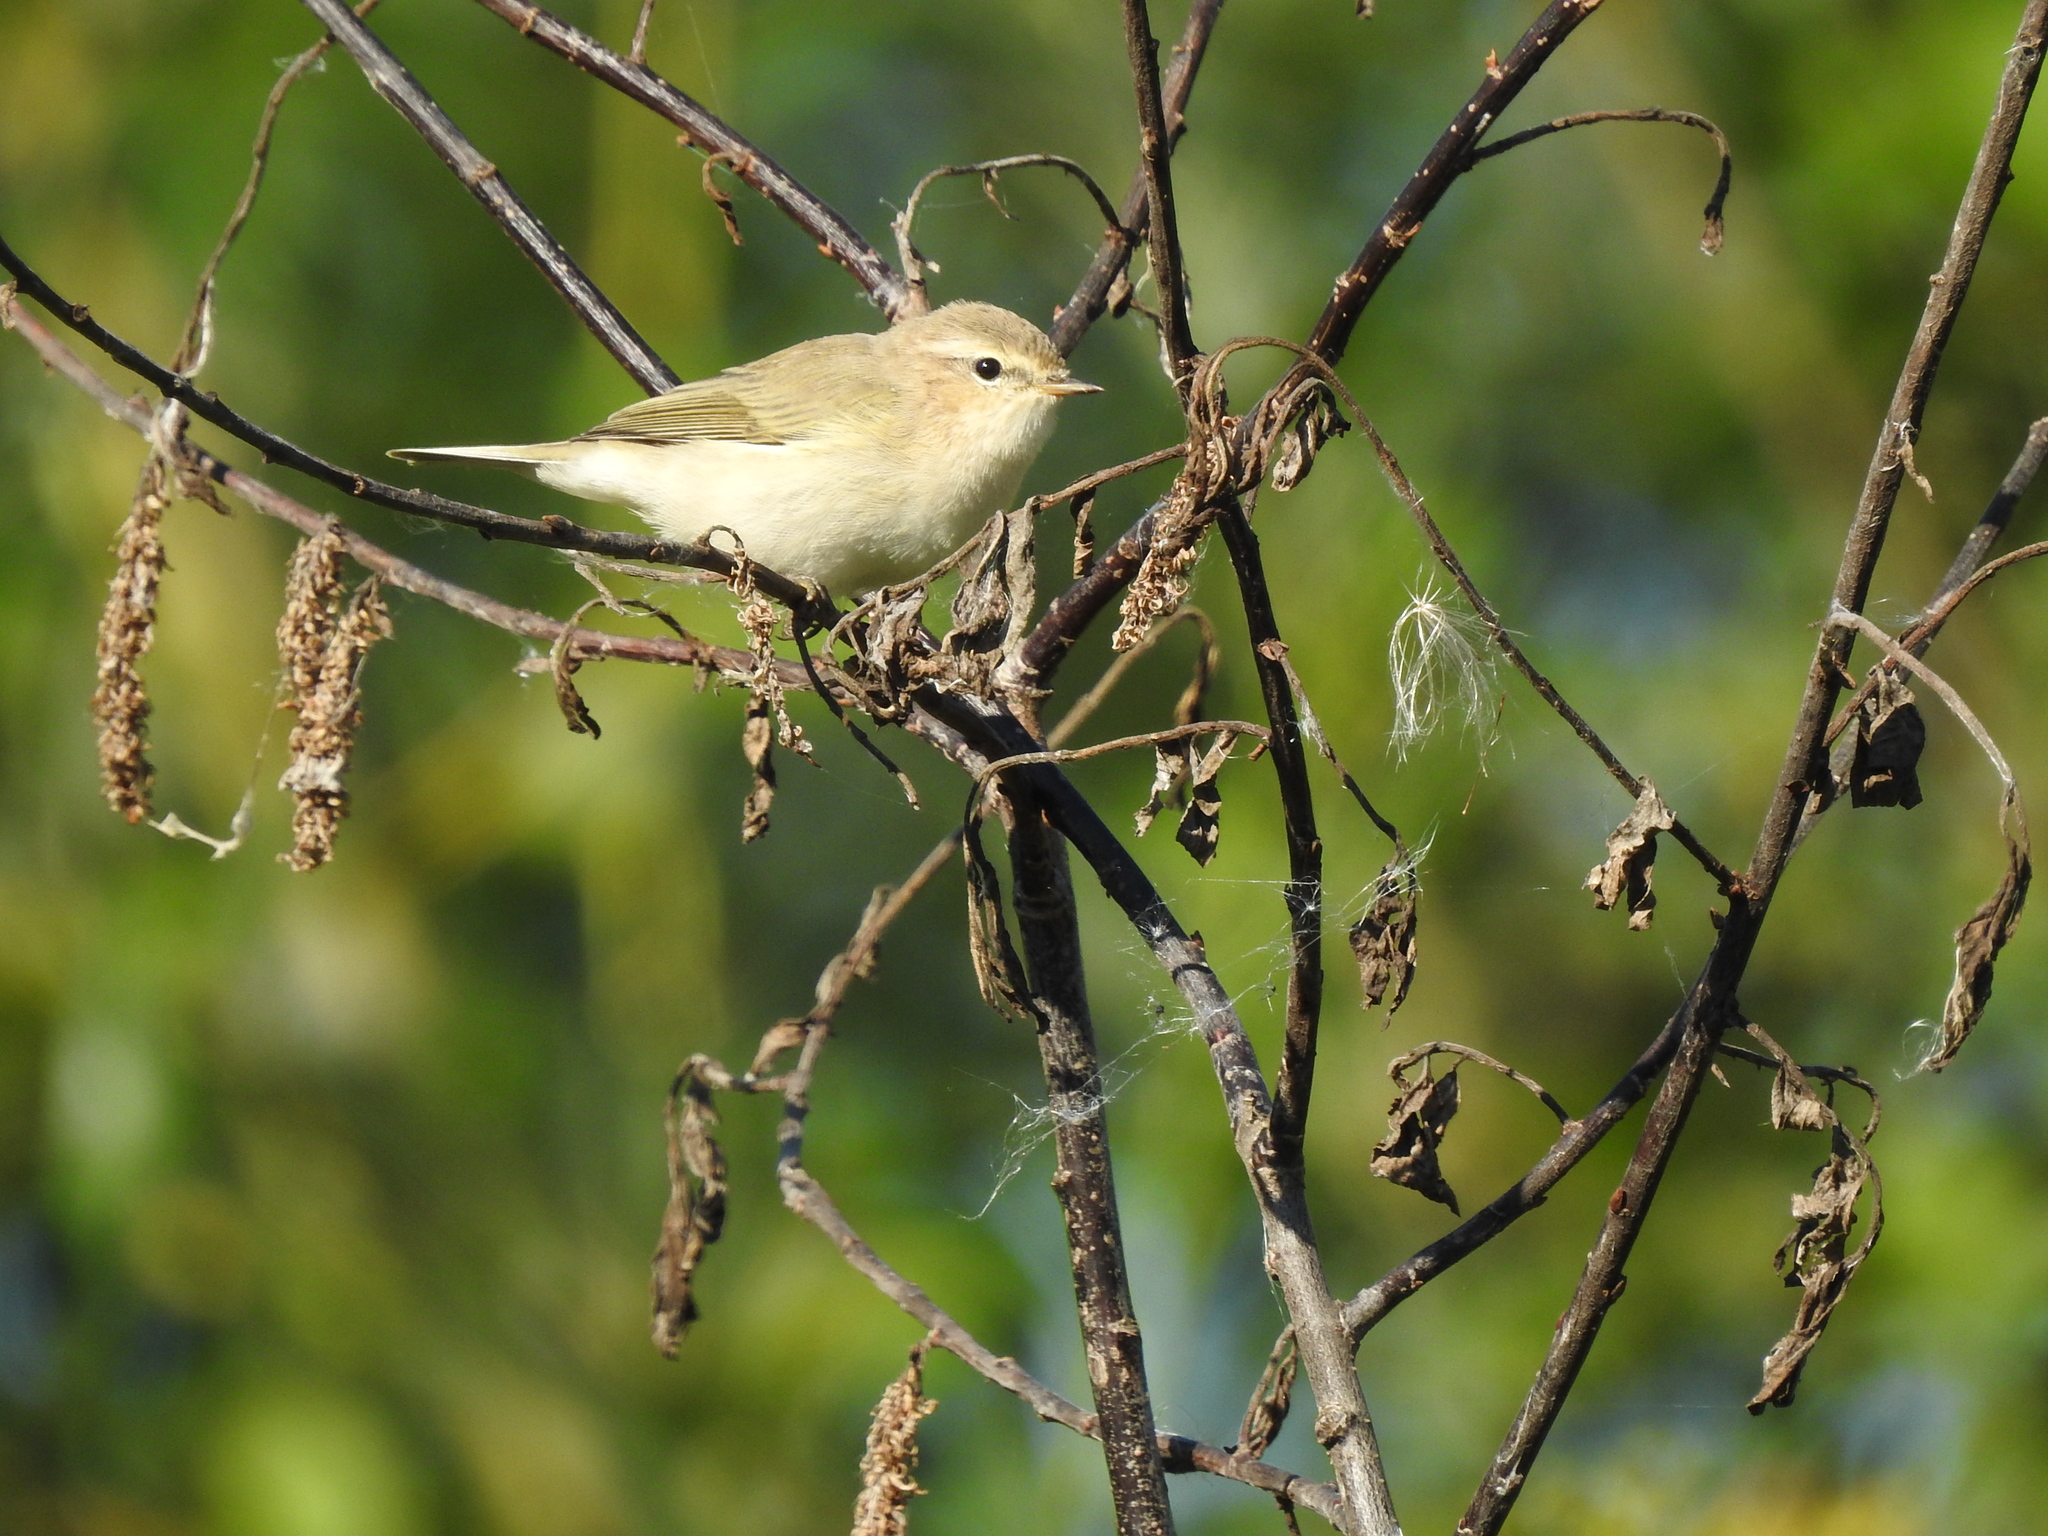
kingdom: Animalia
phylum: Chordata
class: Aves
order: Passeriformes
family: Phylloscopidae
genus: Phylloscopus
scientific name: Phylloscopus collybita
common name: Common chiffchaff
